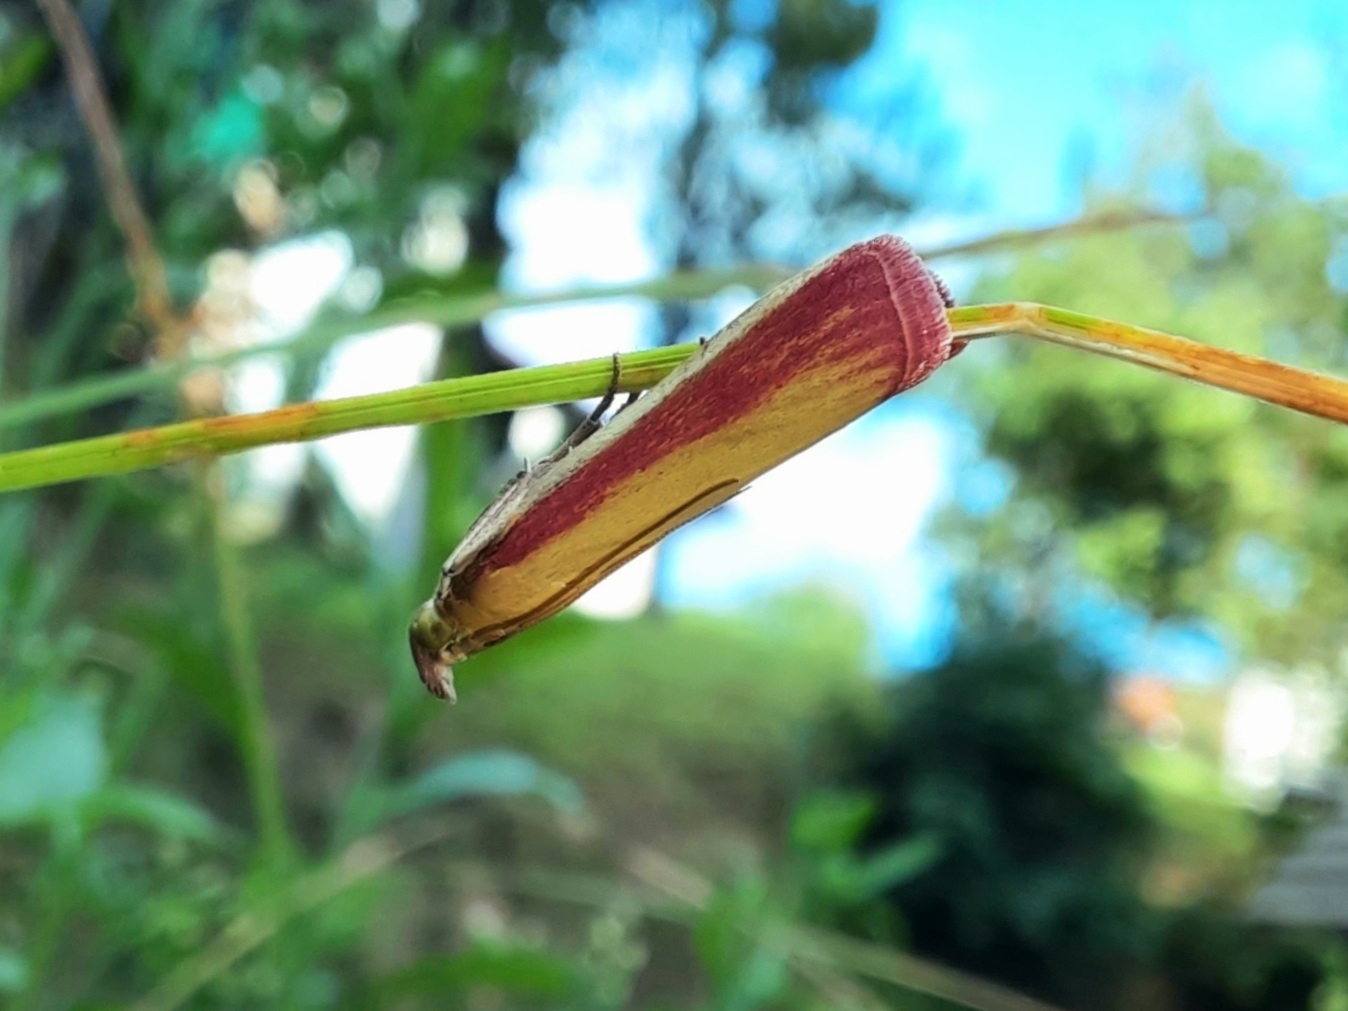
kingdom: Animalia
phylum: Arthropoda
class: Insecta
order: Lepidoptera
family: Pyralidae
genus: Oncocera
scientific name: Oncocera semirubella
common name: Rosy-striped knot-horn
